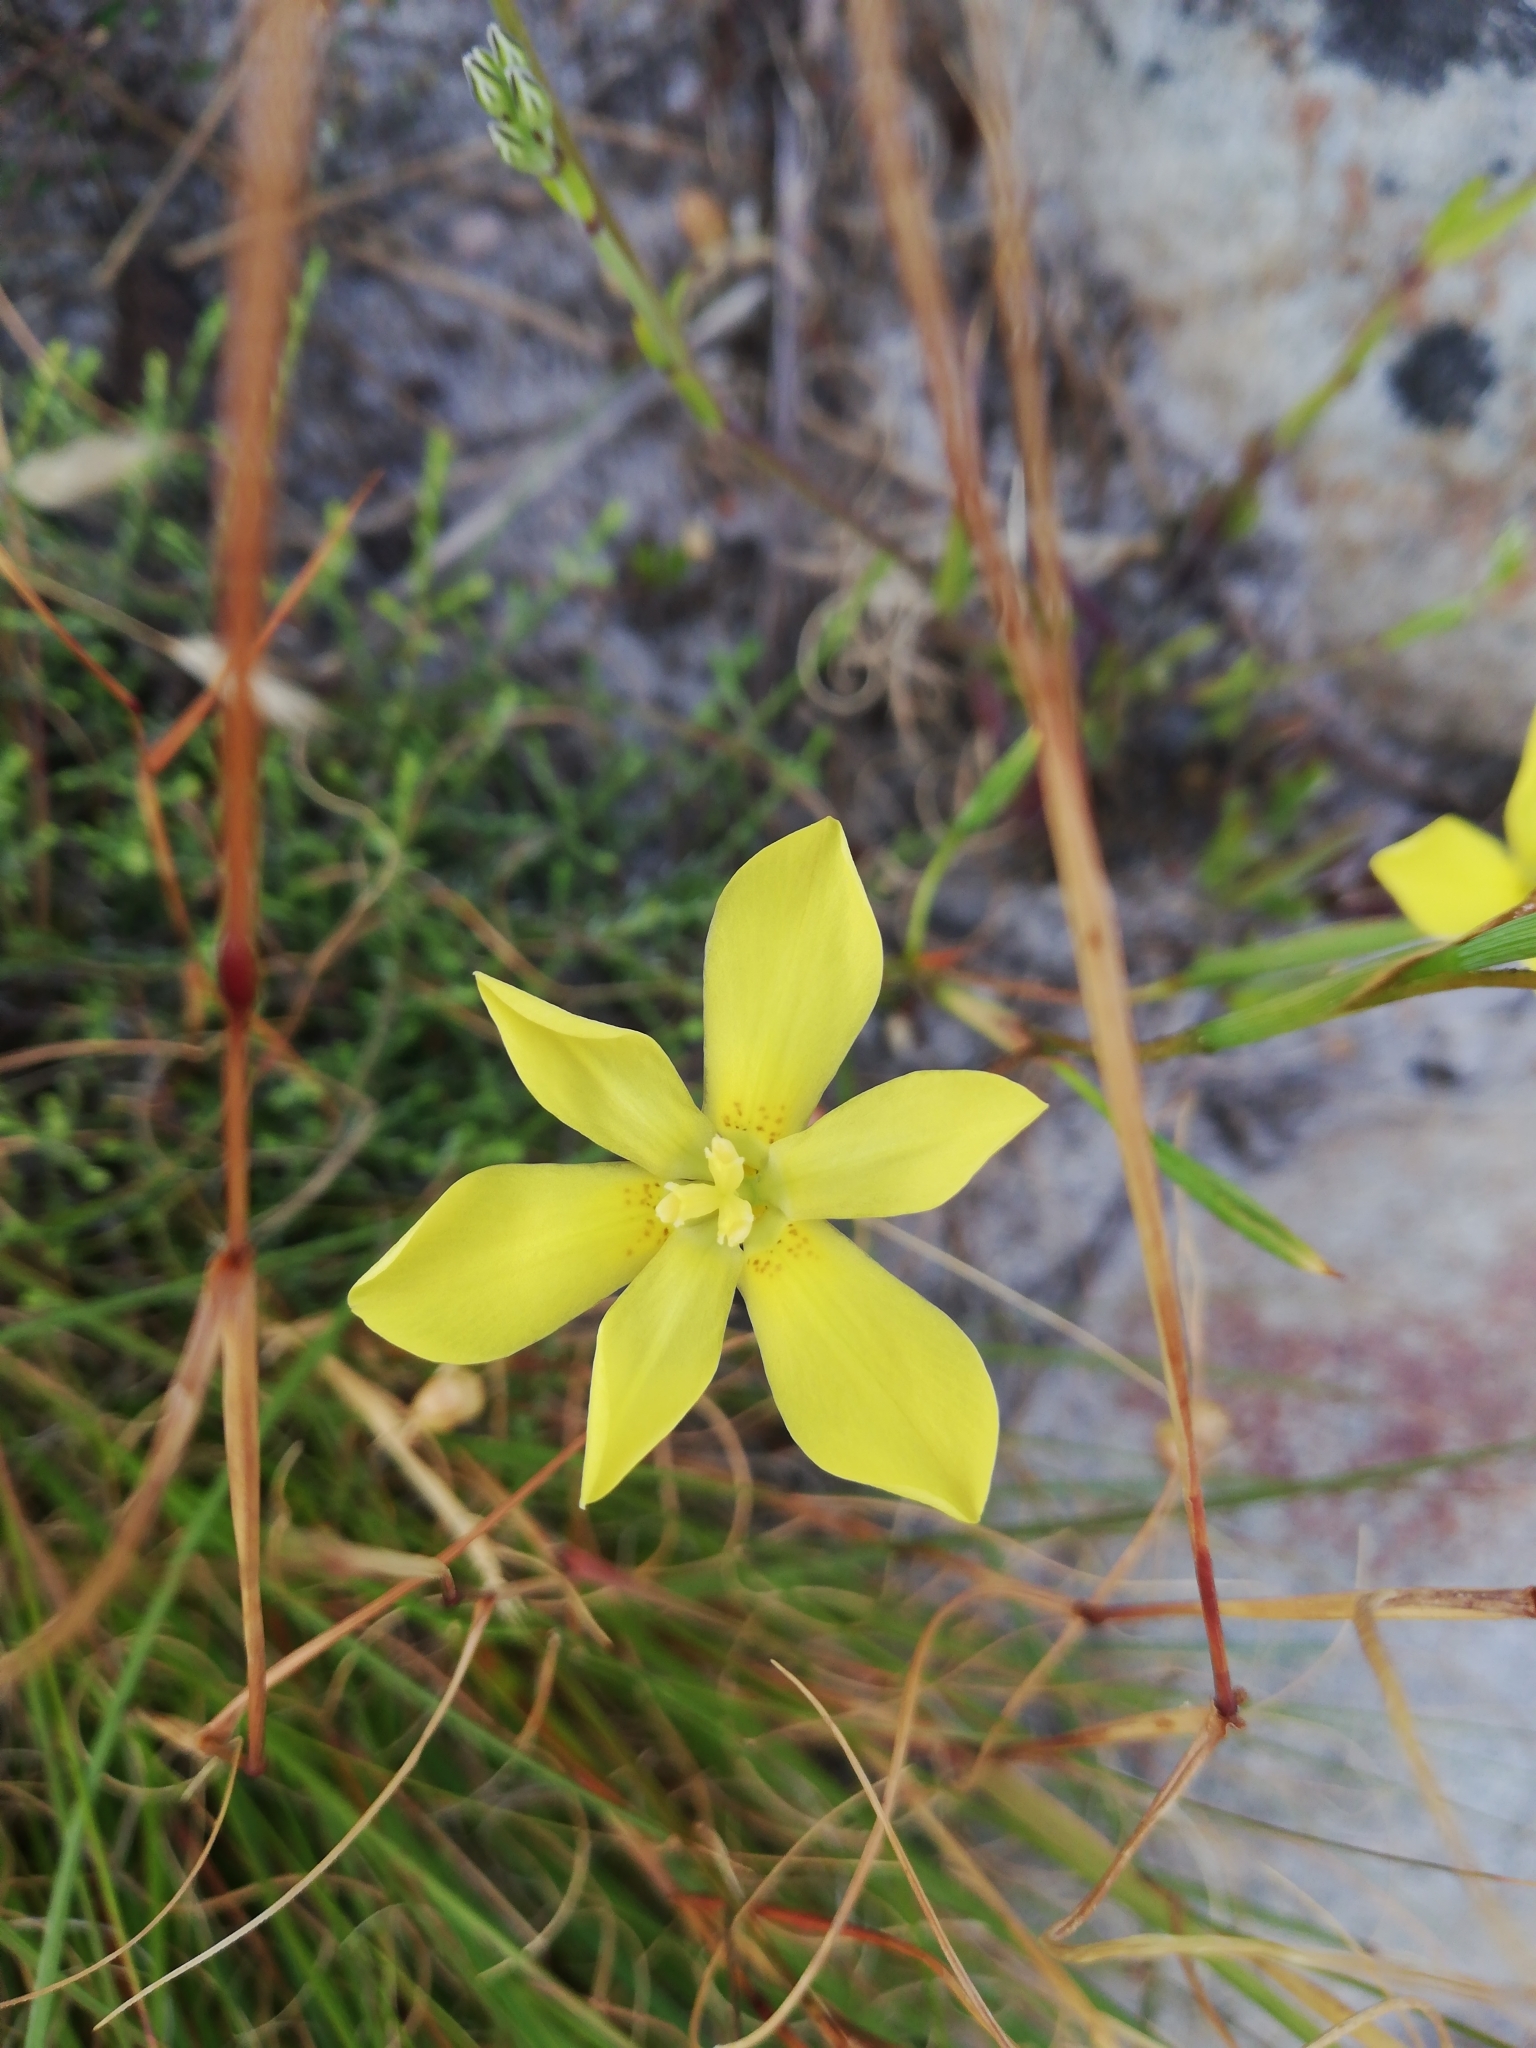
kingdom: Plantae
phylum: Tracheophyta
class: Liliopsida
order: Asparagales
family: Iridaceae
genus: Moraea
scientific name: Moraea elsiae
